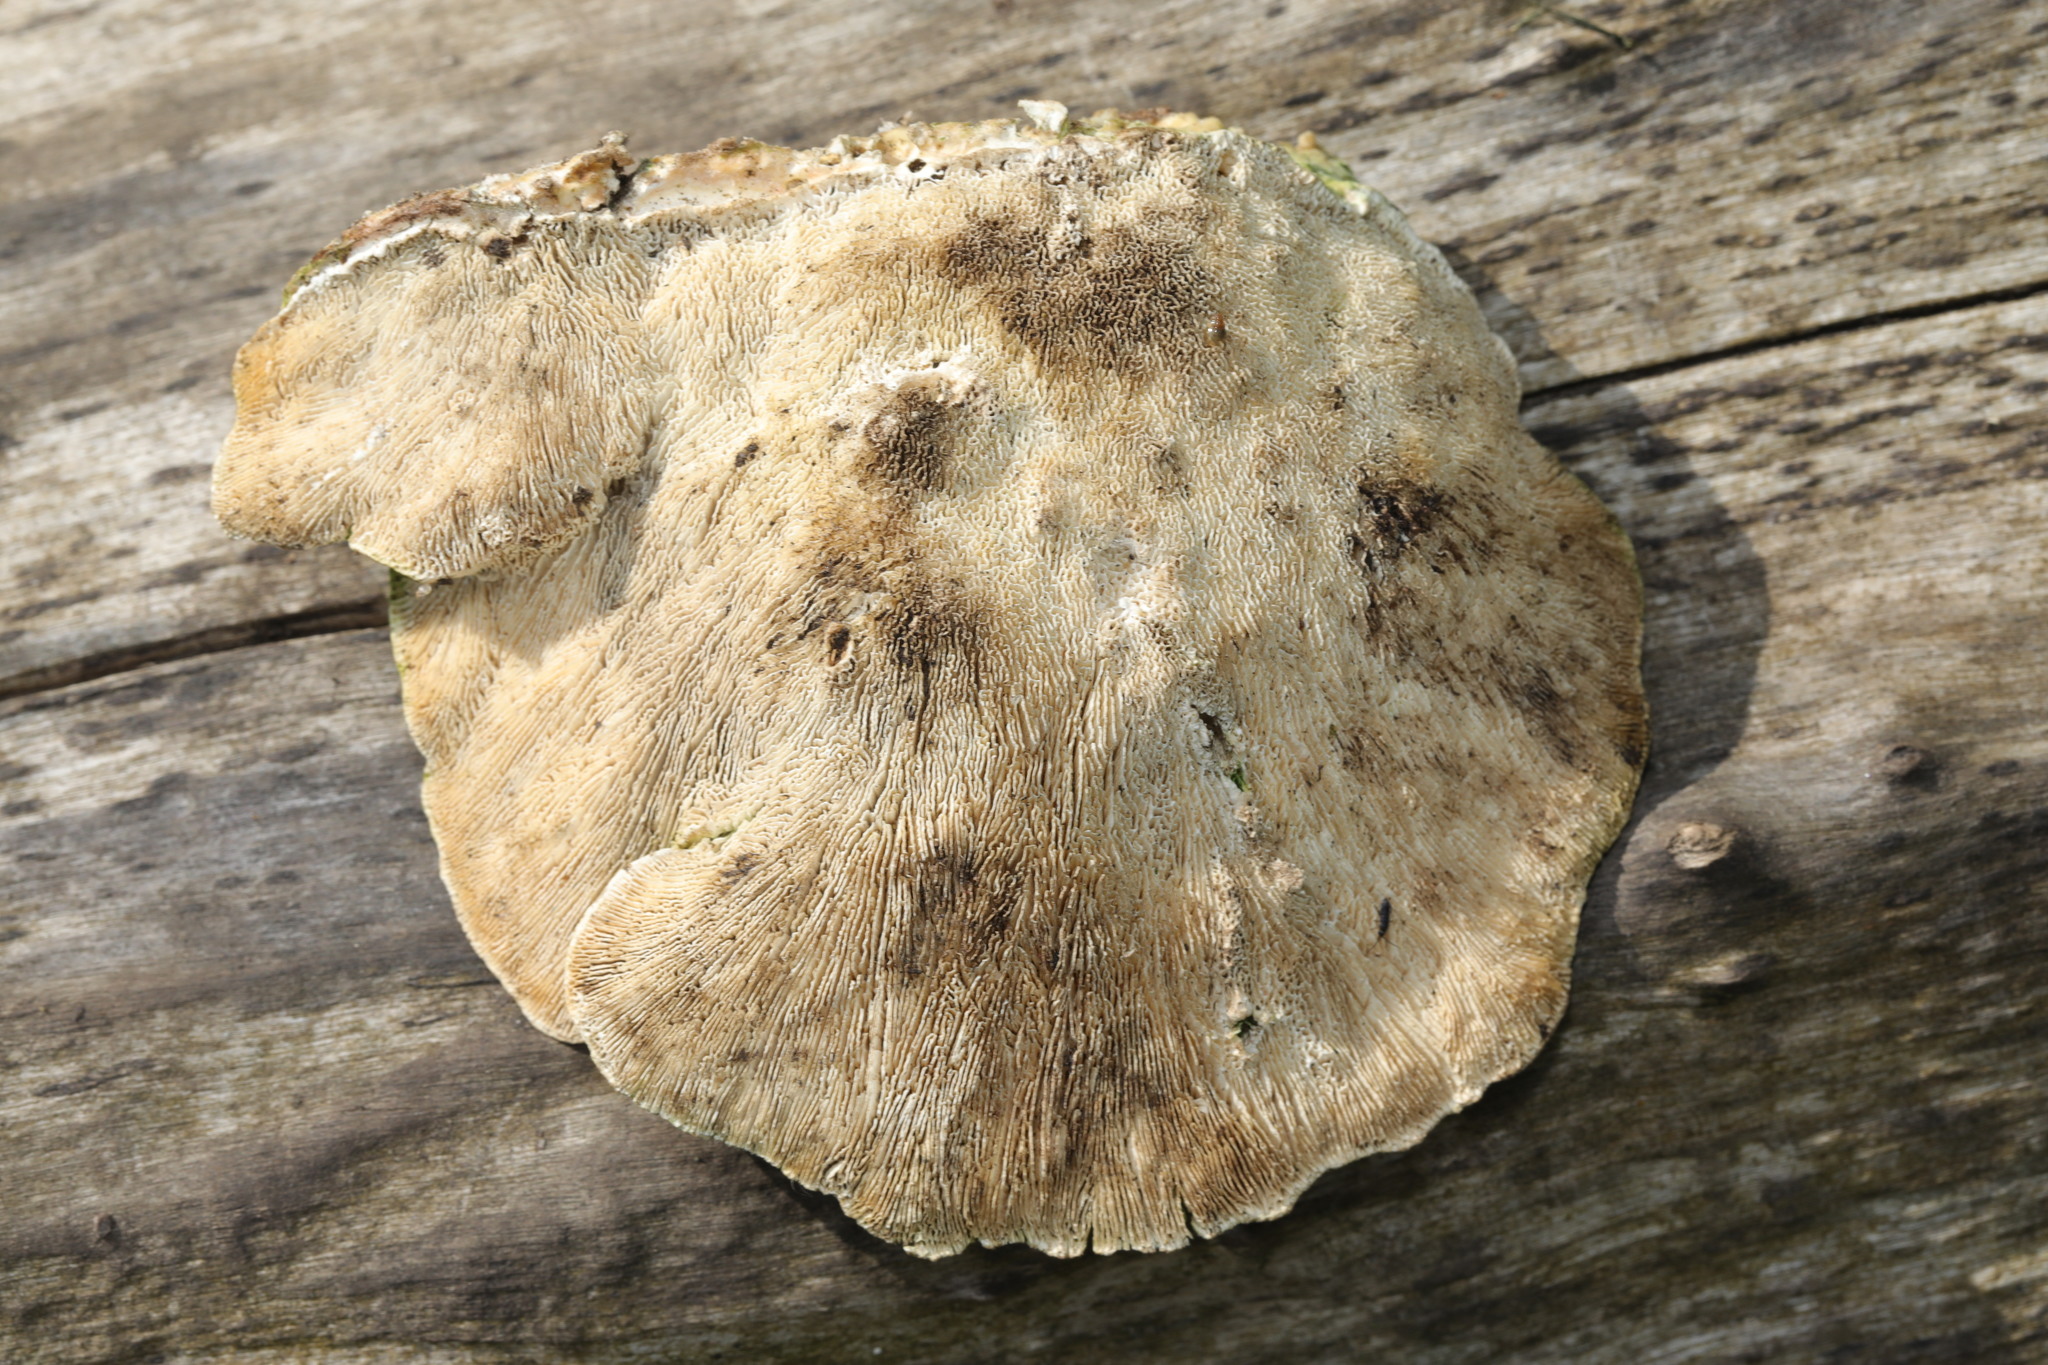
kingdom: Fungi
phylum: Basidiomycota
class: Agaricomycetes
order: Polyporales
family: Polyporaceae
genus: Trametes
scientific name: Trametes gibbosa
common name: Lumpy bracket
